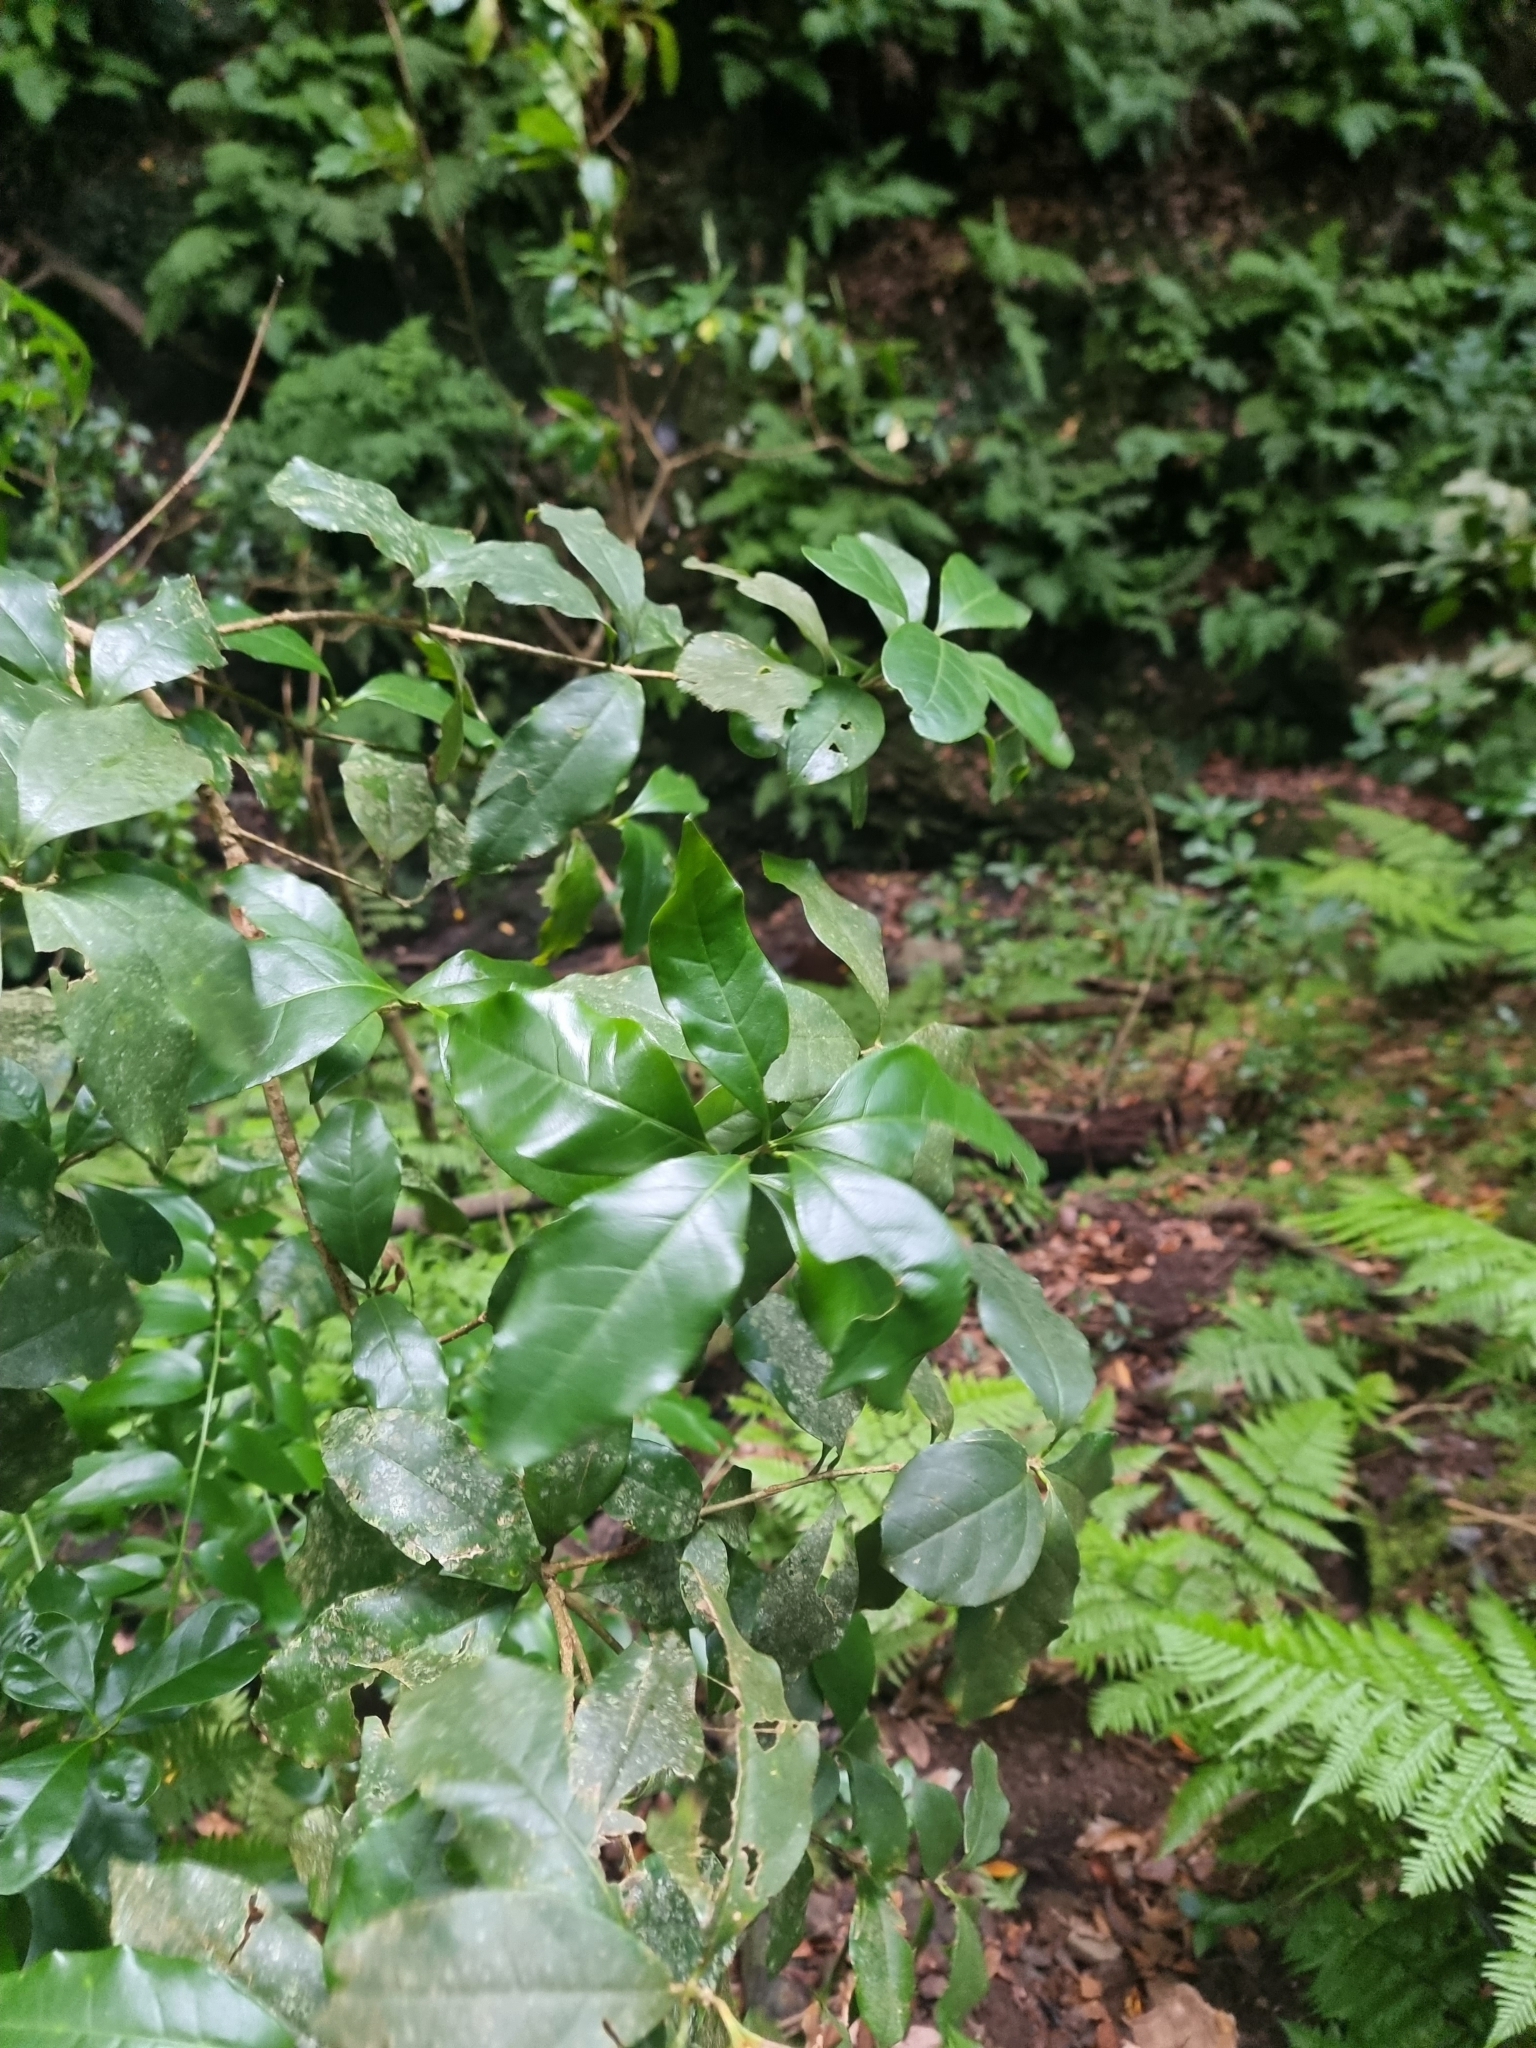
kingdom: Plantae
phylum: Tracheophyta
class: Magnoliopsida
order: Lamiales
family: Oleaceae
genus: Picconia
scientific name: Picconia excelsa
